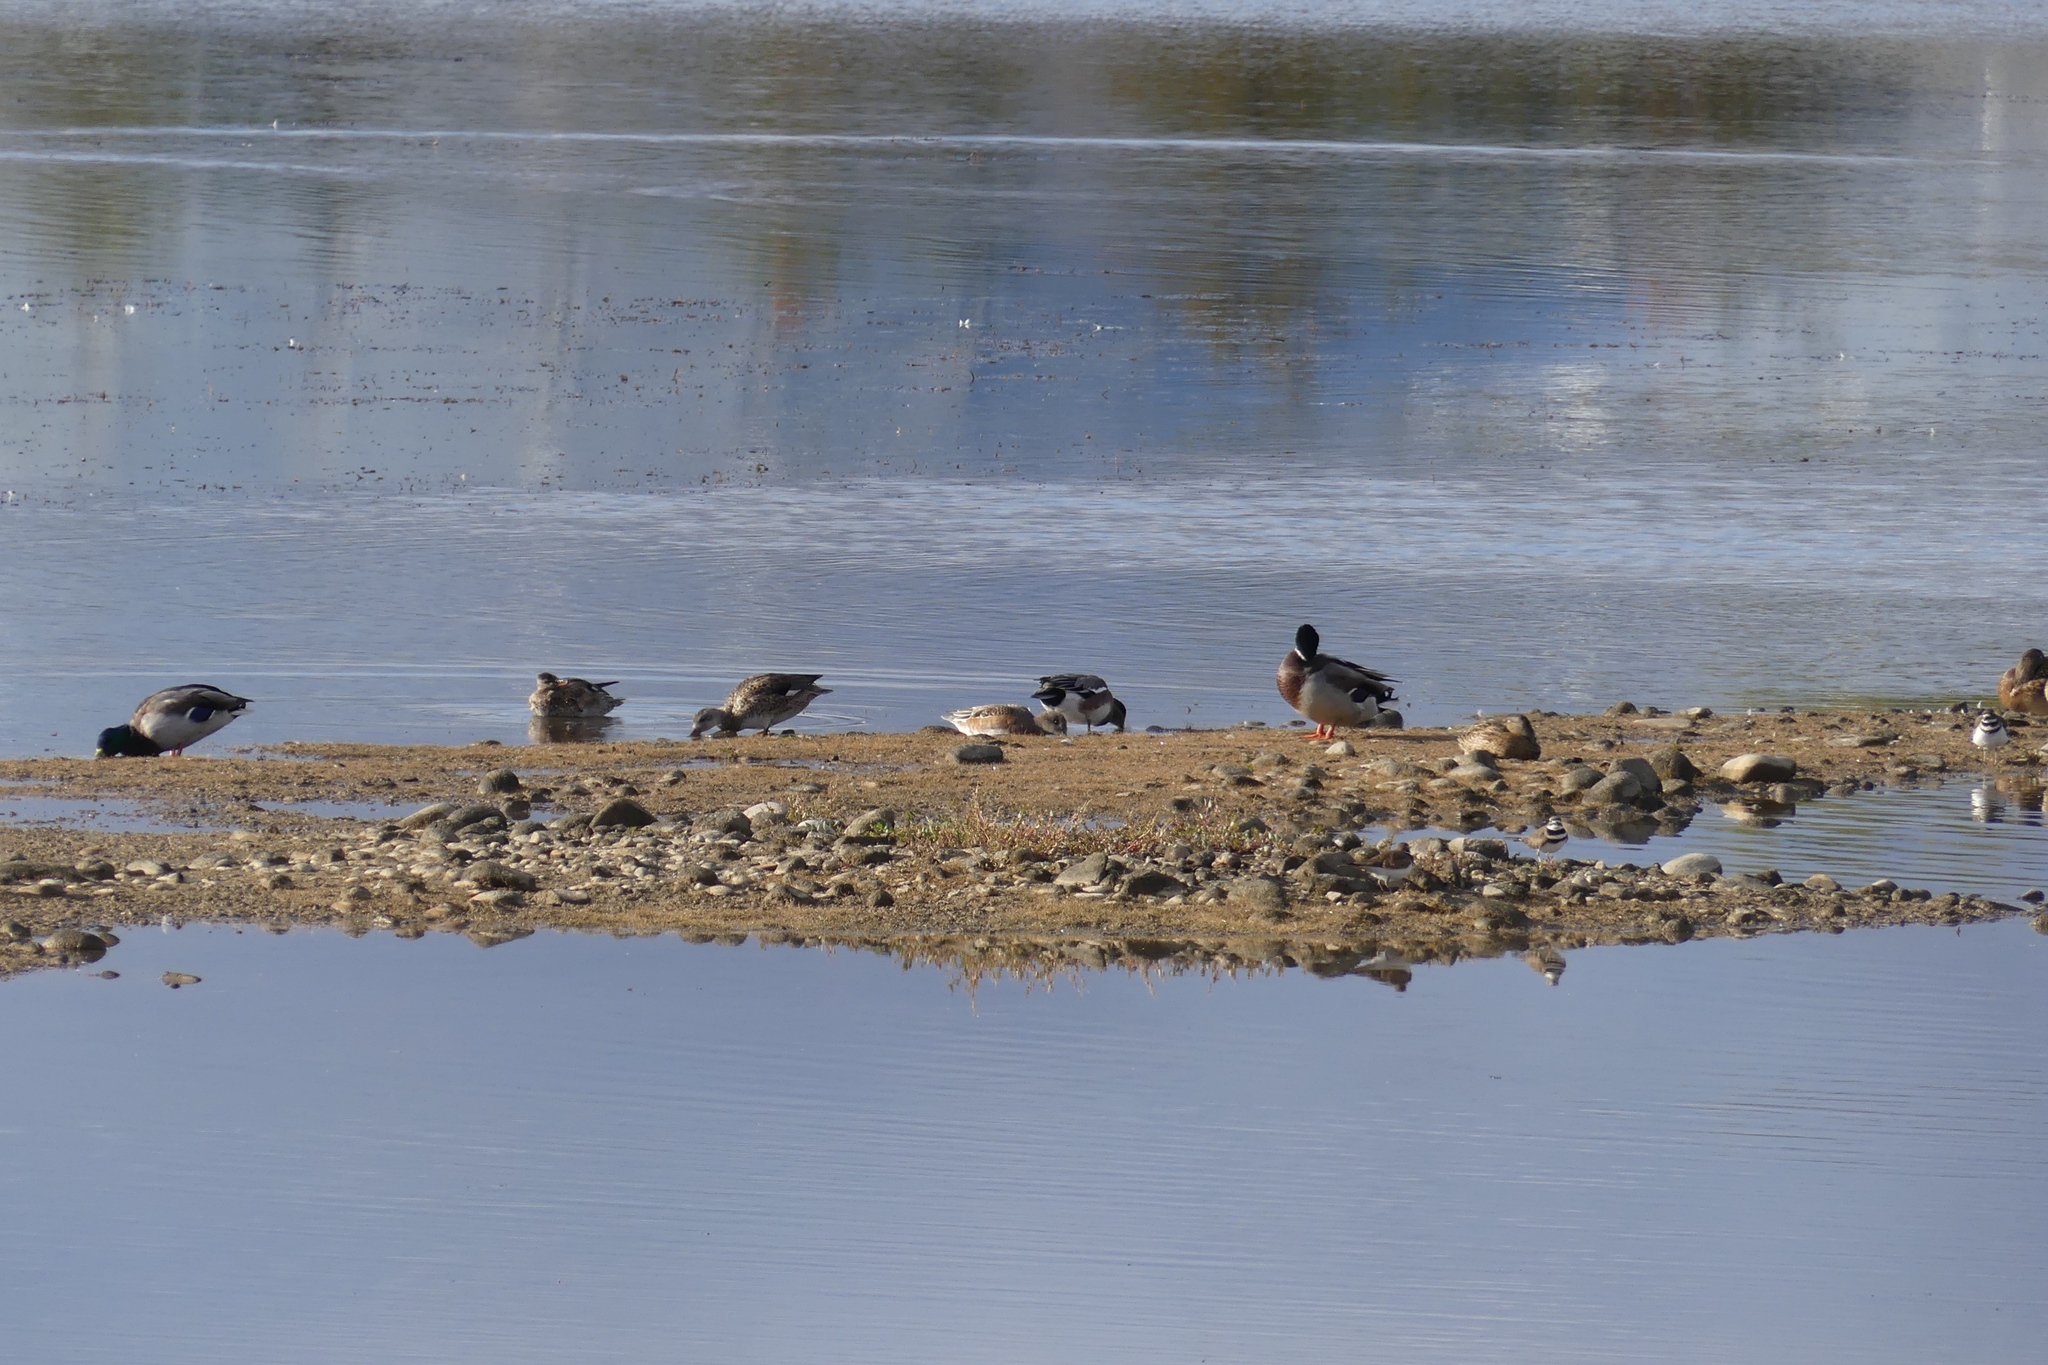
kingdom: Animalia
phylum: Chordata
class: Aves
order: Anseriformes
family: Anatidae
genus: Anas
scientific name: Anas platyrhynchos
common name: Mallard
